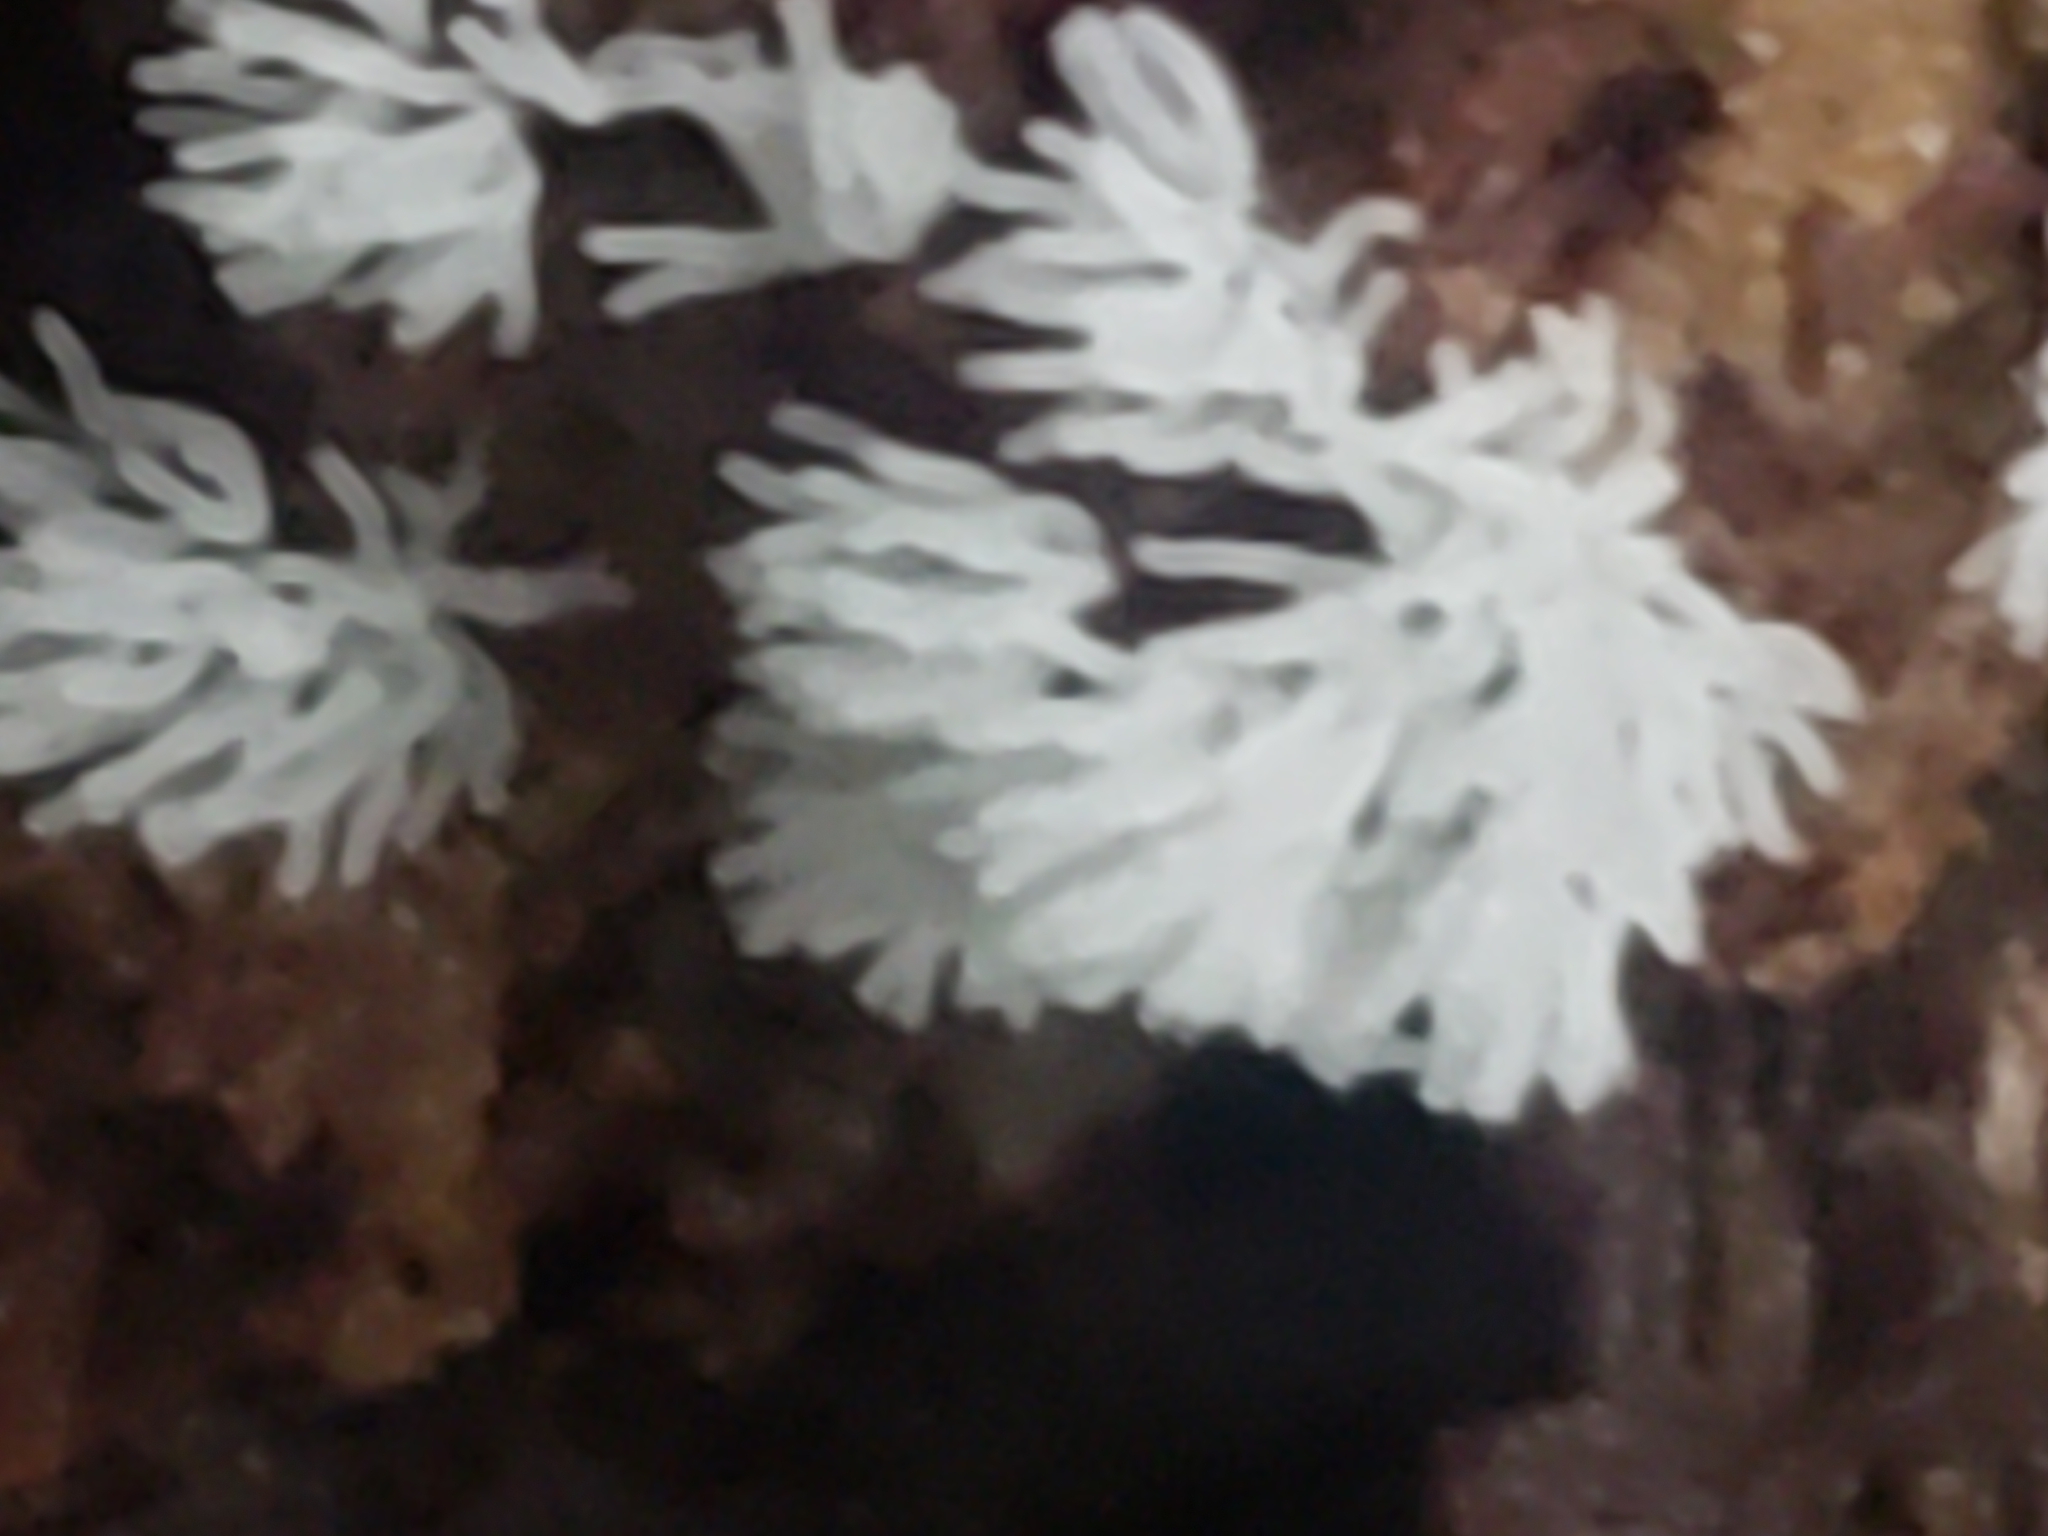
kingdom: Protozoa
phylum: Mycetozoa
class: Protosteliomycetes
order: Ceratiomyxales
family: Ceratiomyxaceae
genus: Ceratiomyxa
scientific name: Ceratiomyxa fruticulosa
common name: Honeycomb coral slime mold
